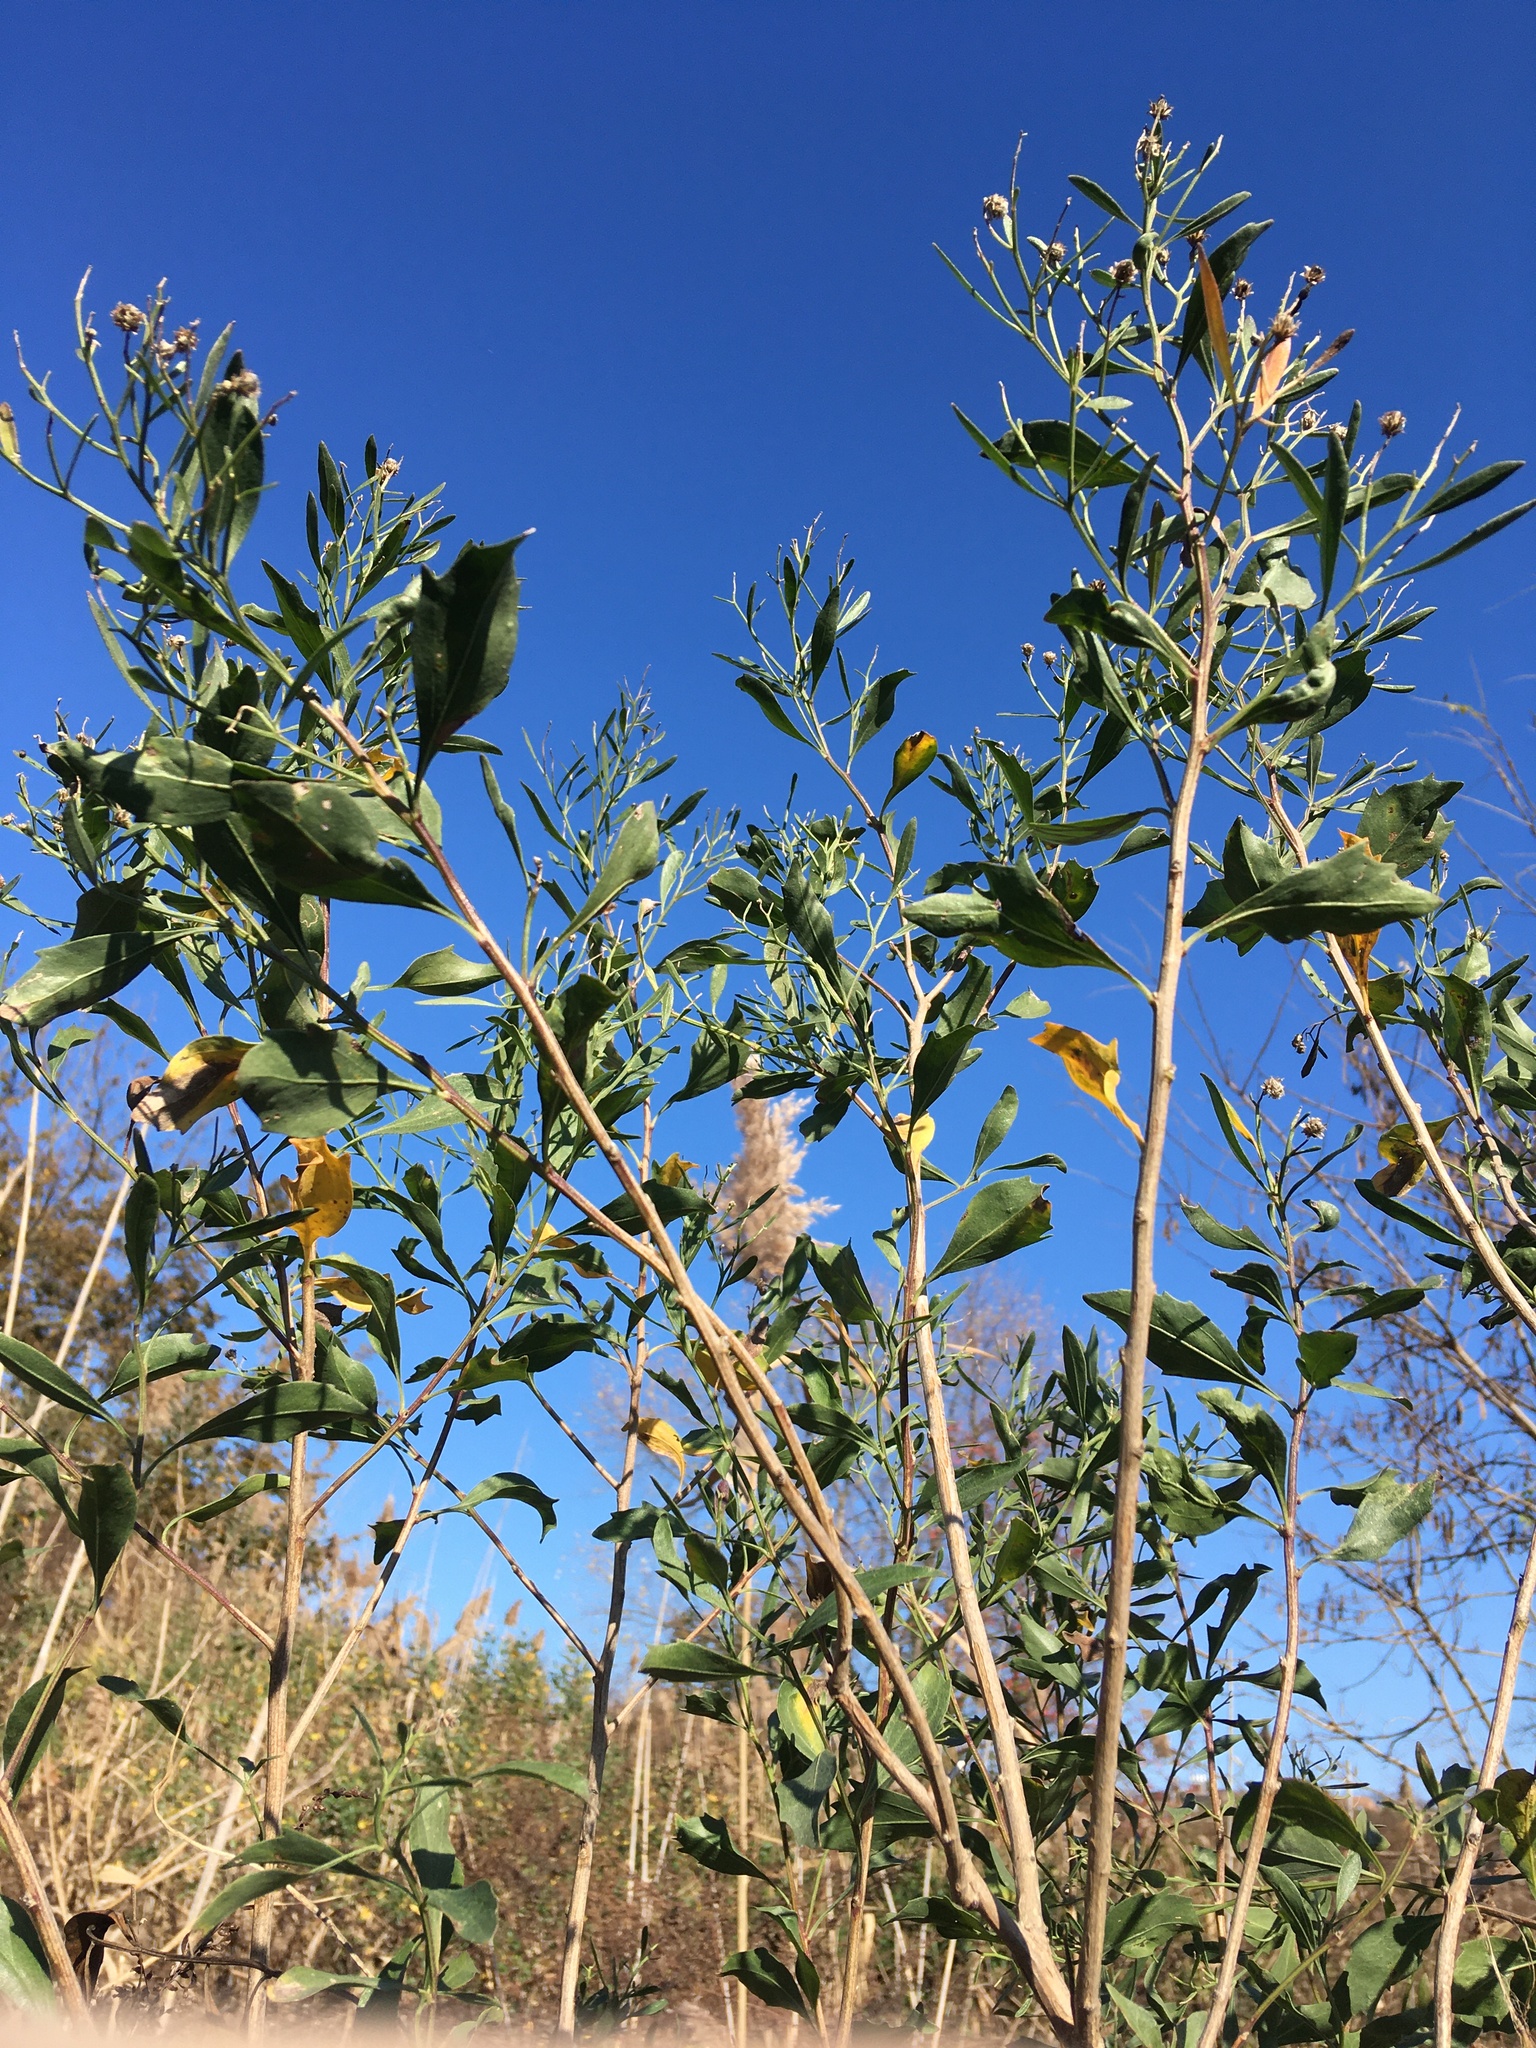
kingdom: Plantae
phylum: Tracheophyta
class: Magnoliopsida
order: Asterales
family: Asteraceae
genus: Baccharis
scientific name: Baccharis halimifolia
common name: Eastern baccharis
